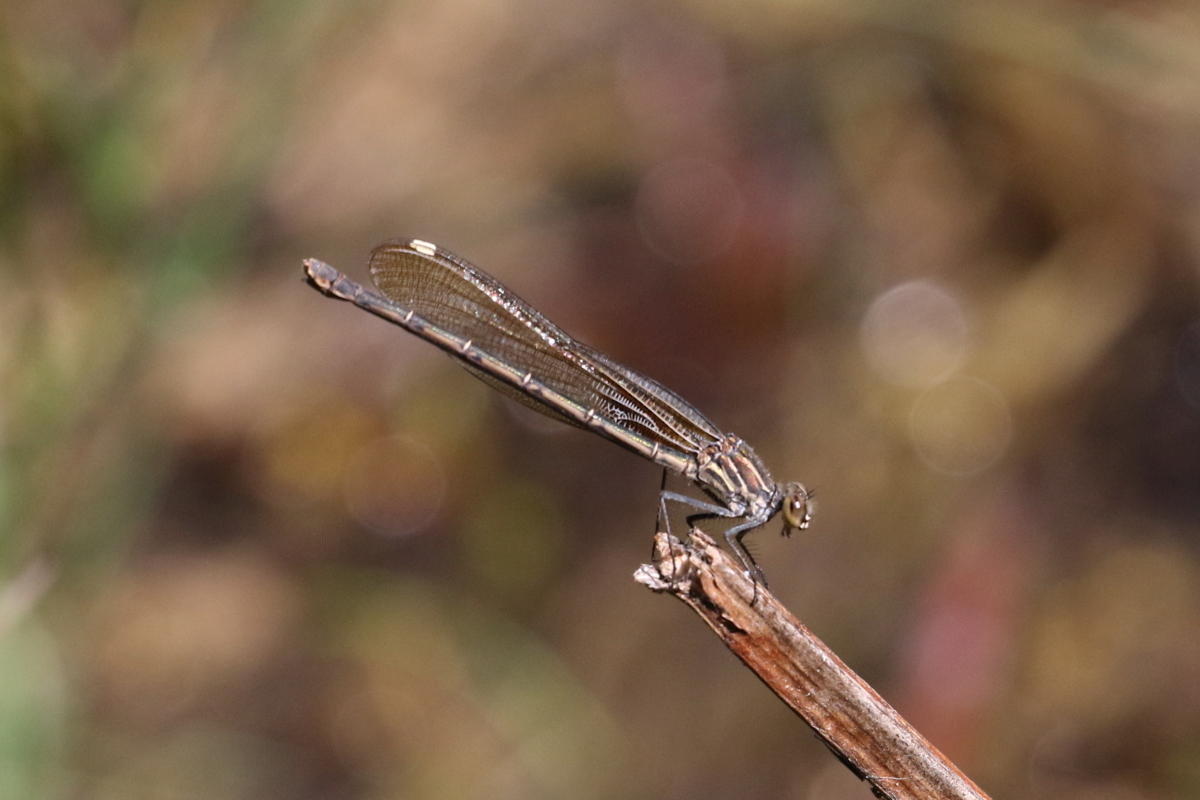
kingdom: Animalia
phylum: Arthropoda
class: Insecta
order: Odonata
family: Calopterygidae
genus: Hetaerina
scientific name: Hetaerina americana
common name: American rubyspot
